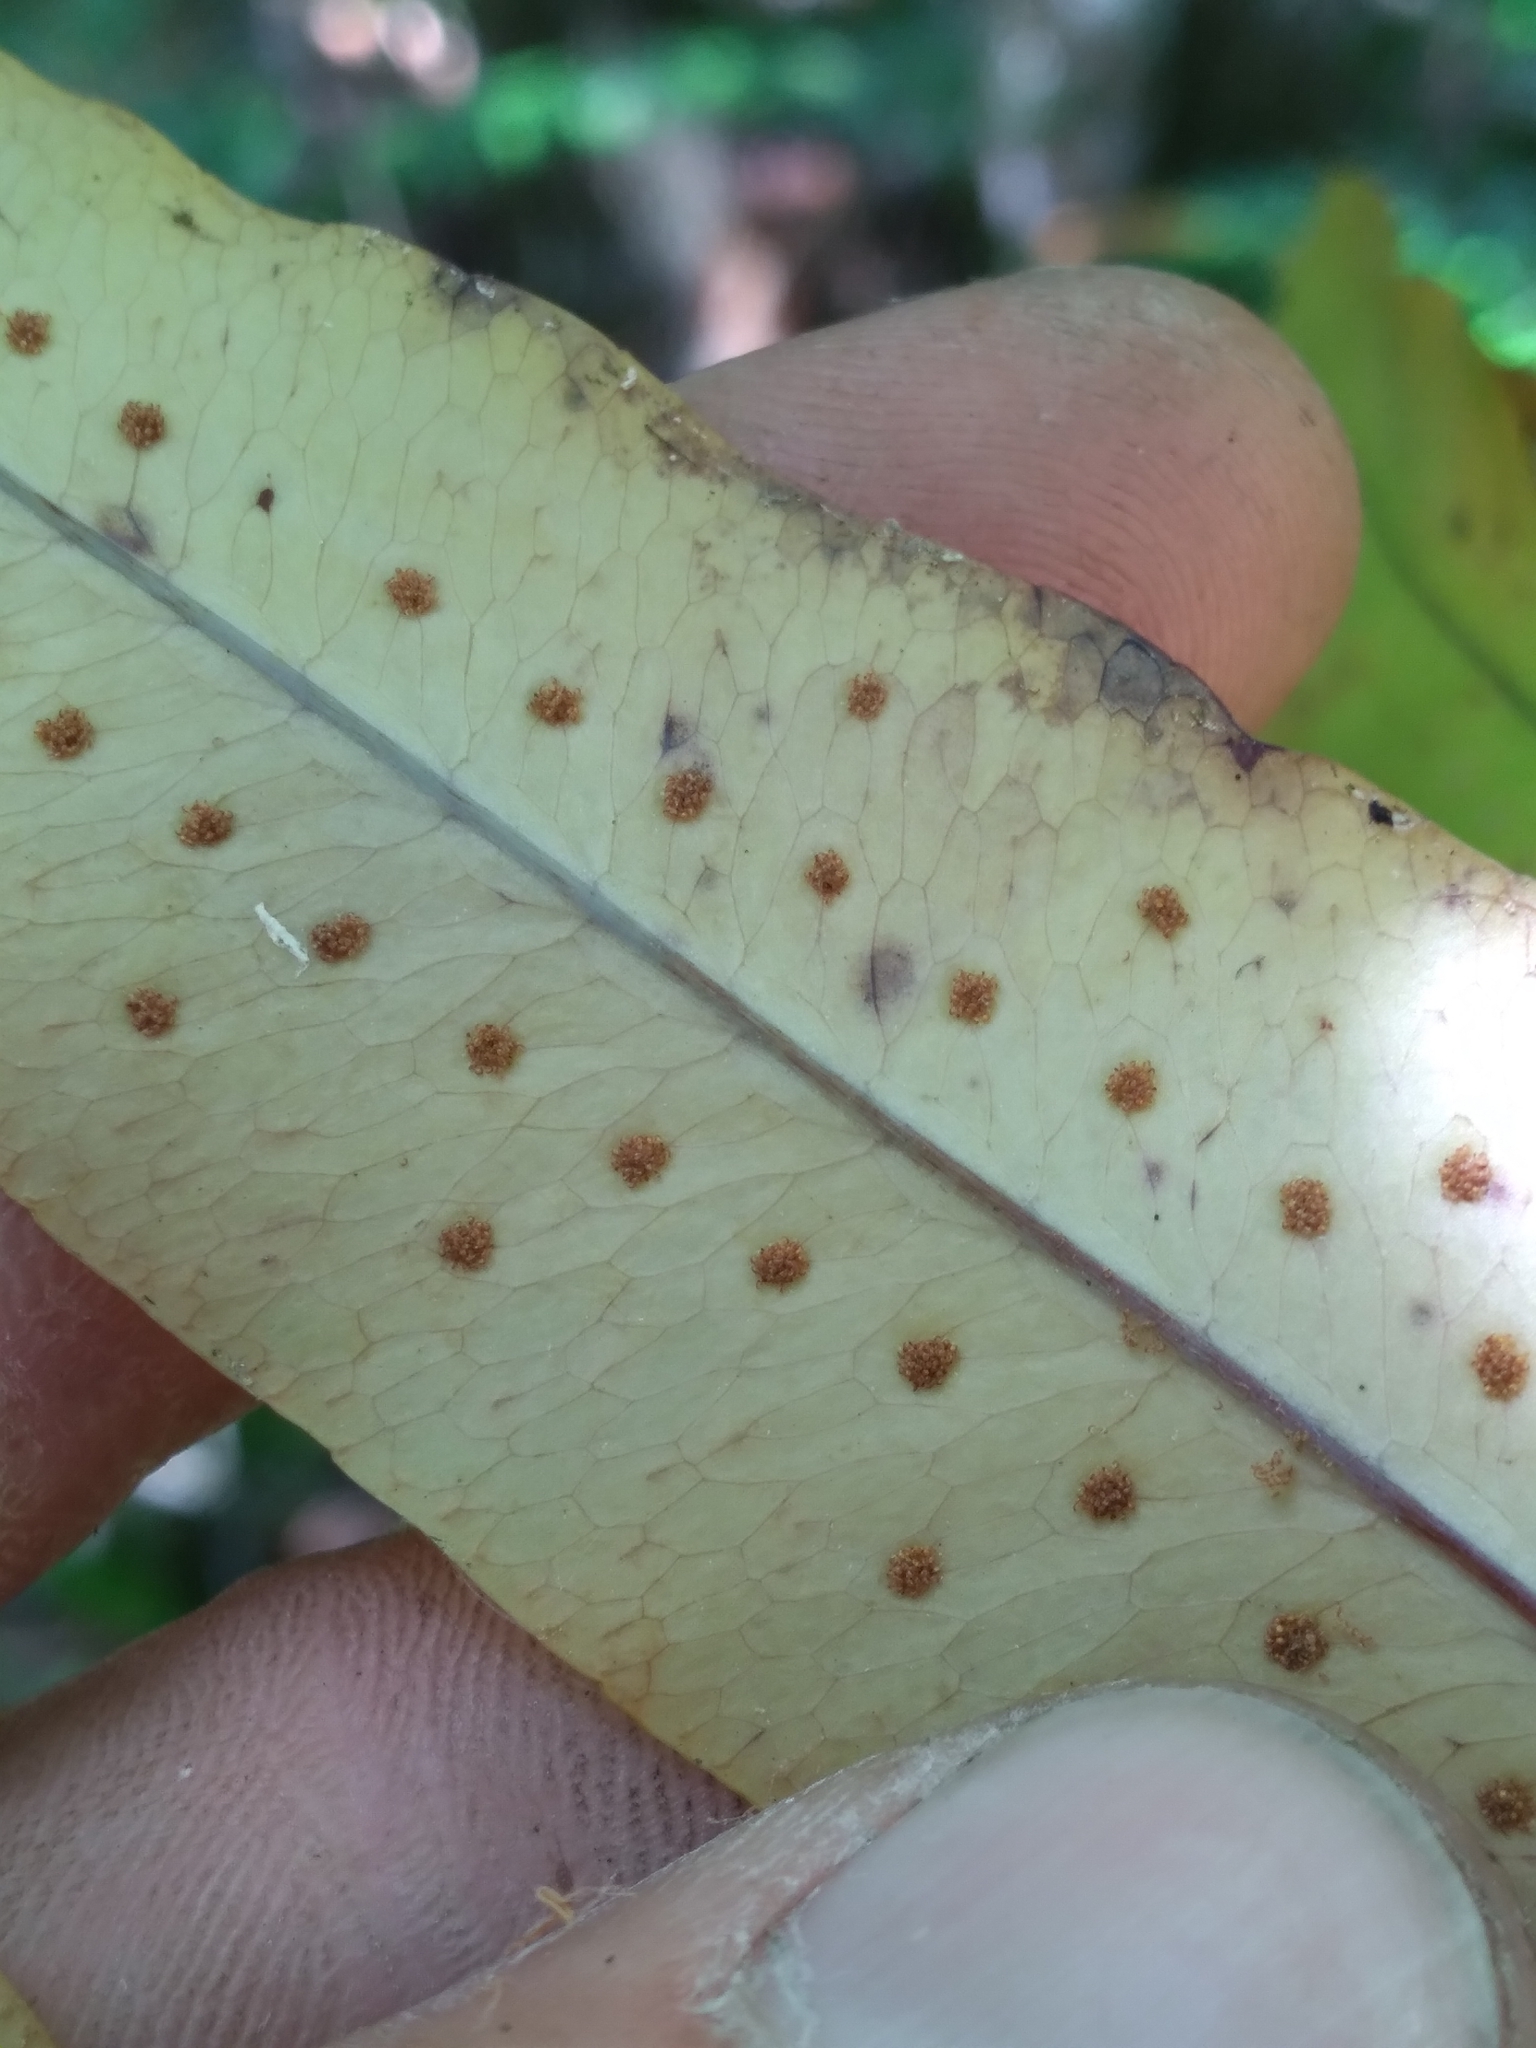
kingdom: Plantae
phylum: Tracheophyta
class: Polypodiopsida
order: Polypodiales
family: Polypodiaceae
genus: Phlebodium
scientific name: Phlebodium aureum
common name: Gold-foot fern
